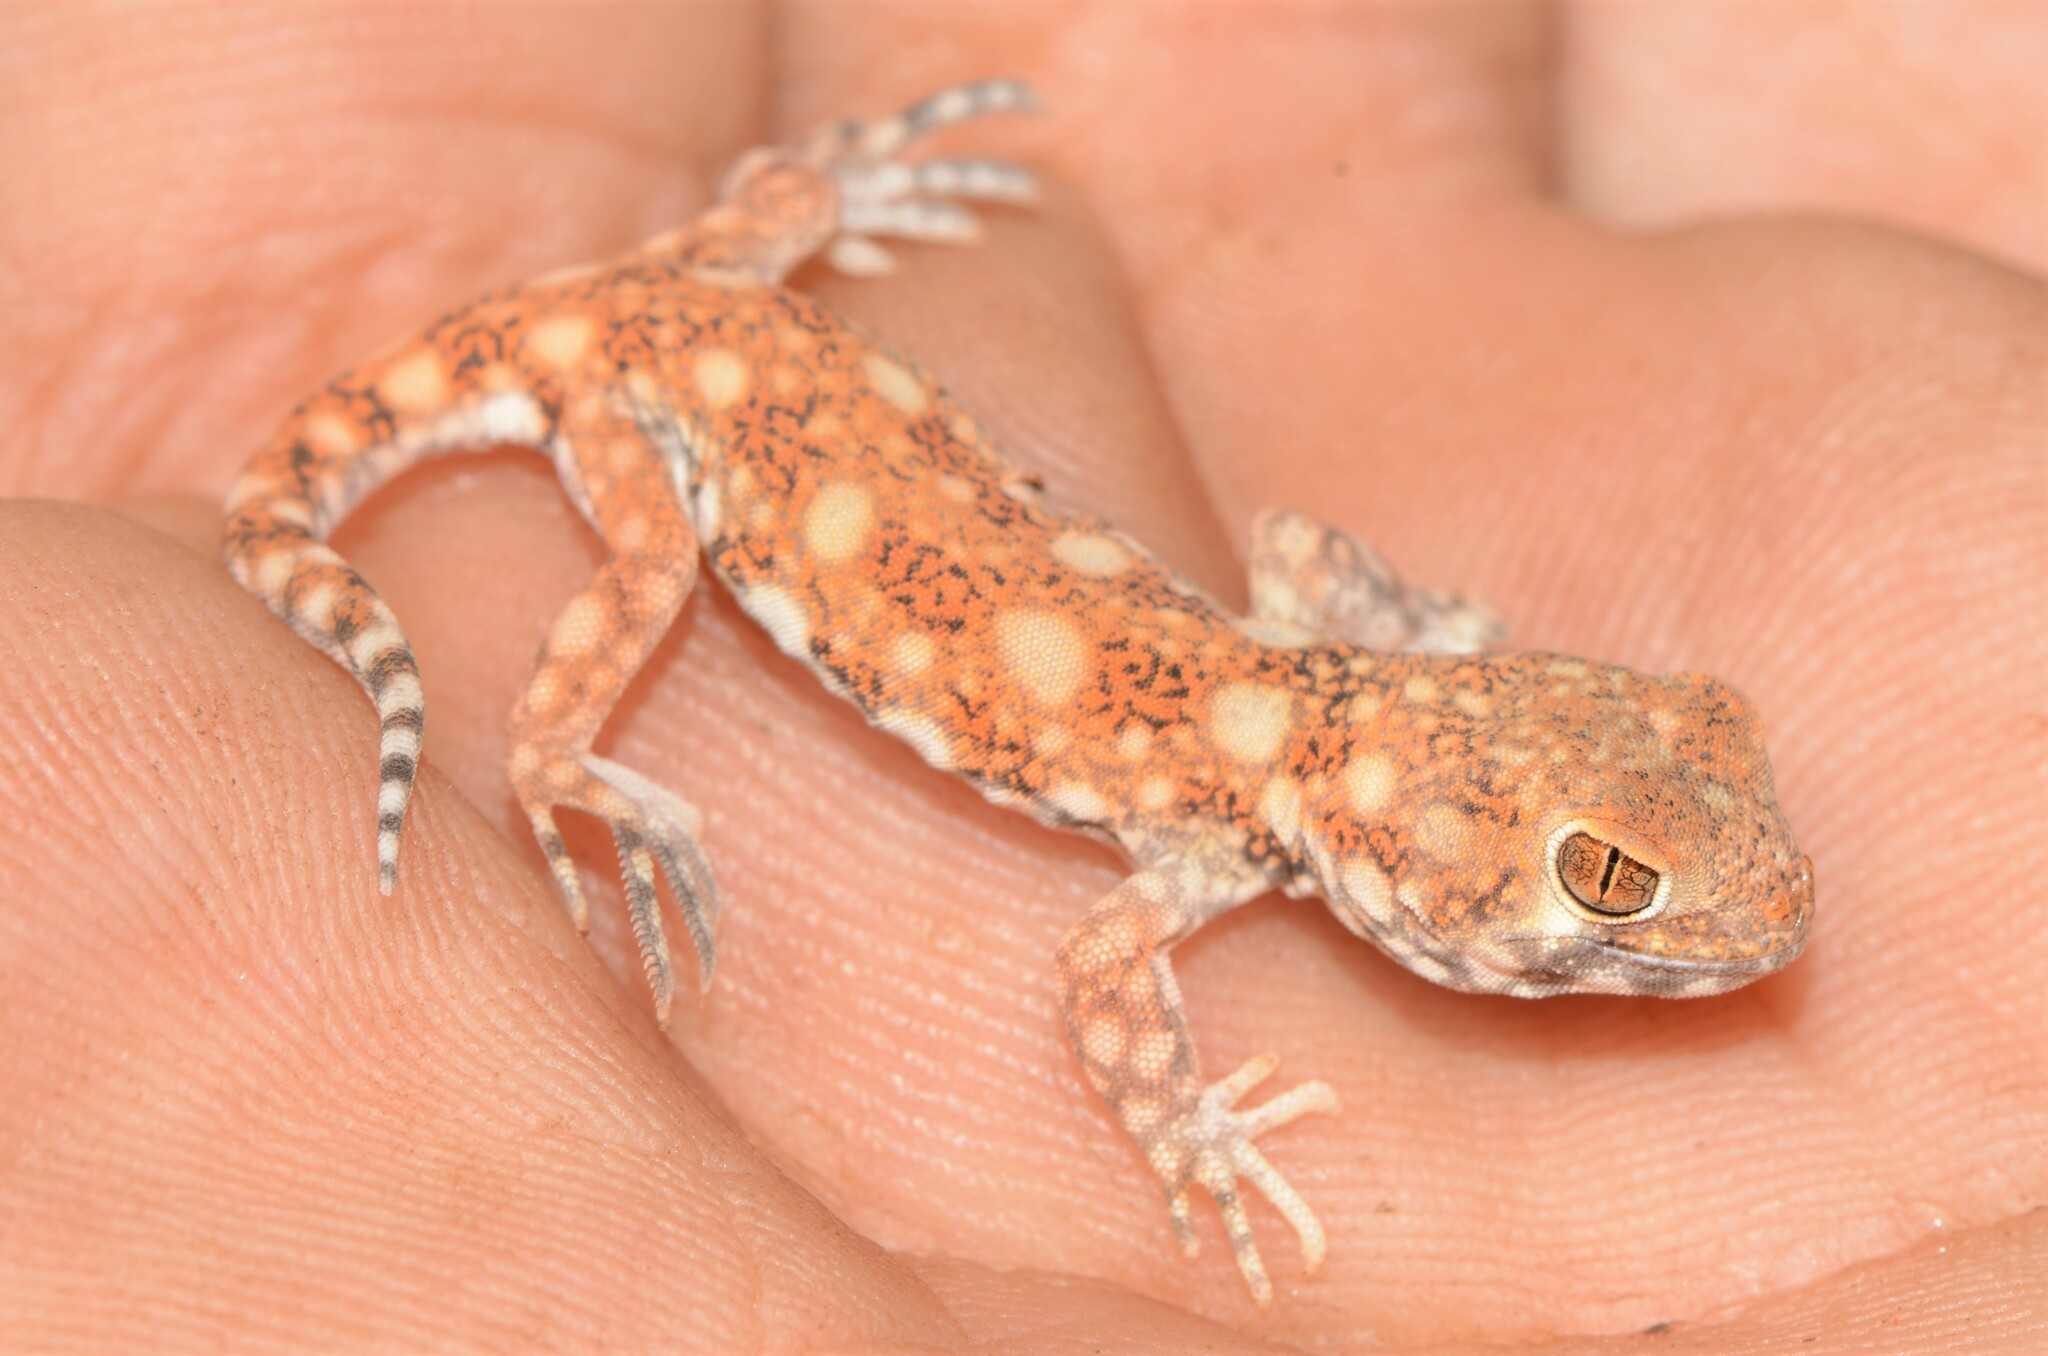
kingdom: Animalia
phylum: Chordata
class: Squamata
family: Gekkonidae
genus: Ptenopus
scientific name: Ptenopus garrulus
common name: Whistling gecko
